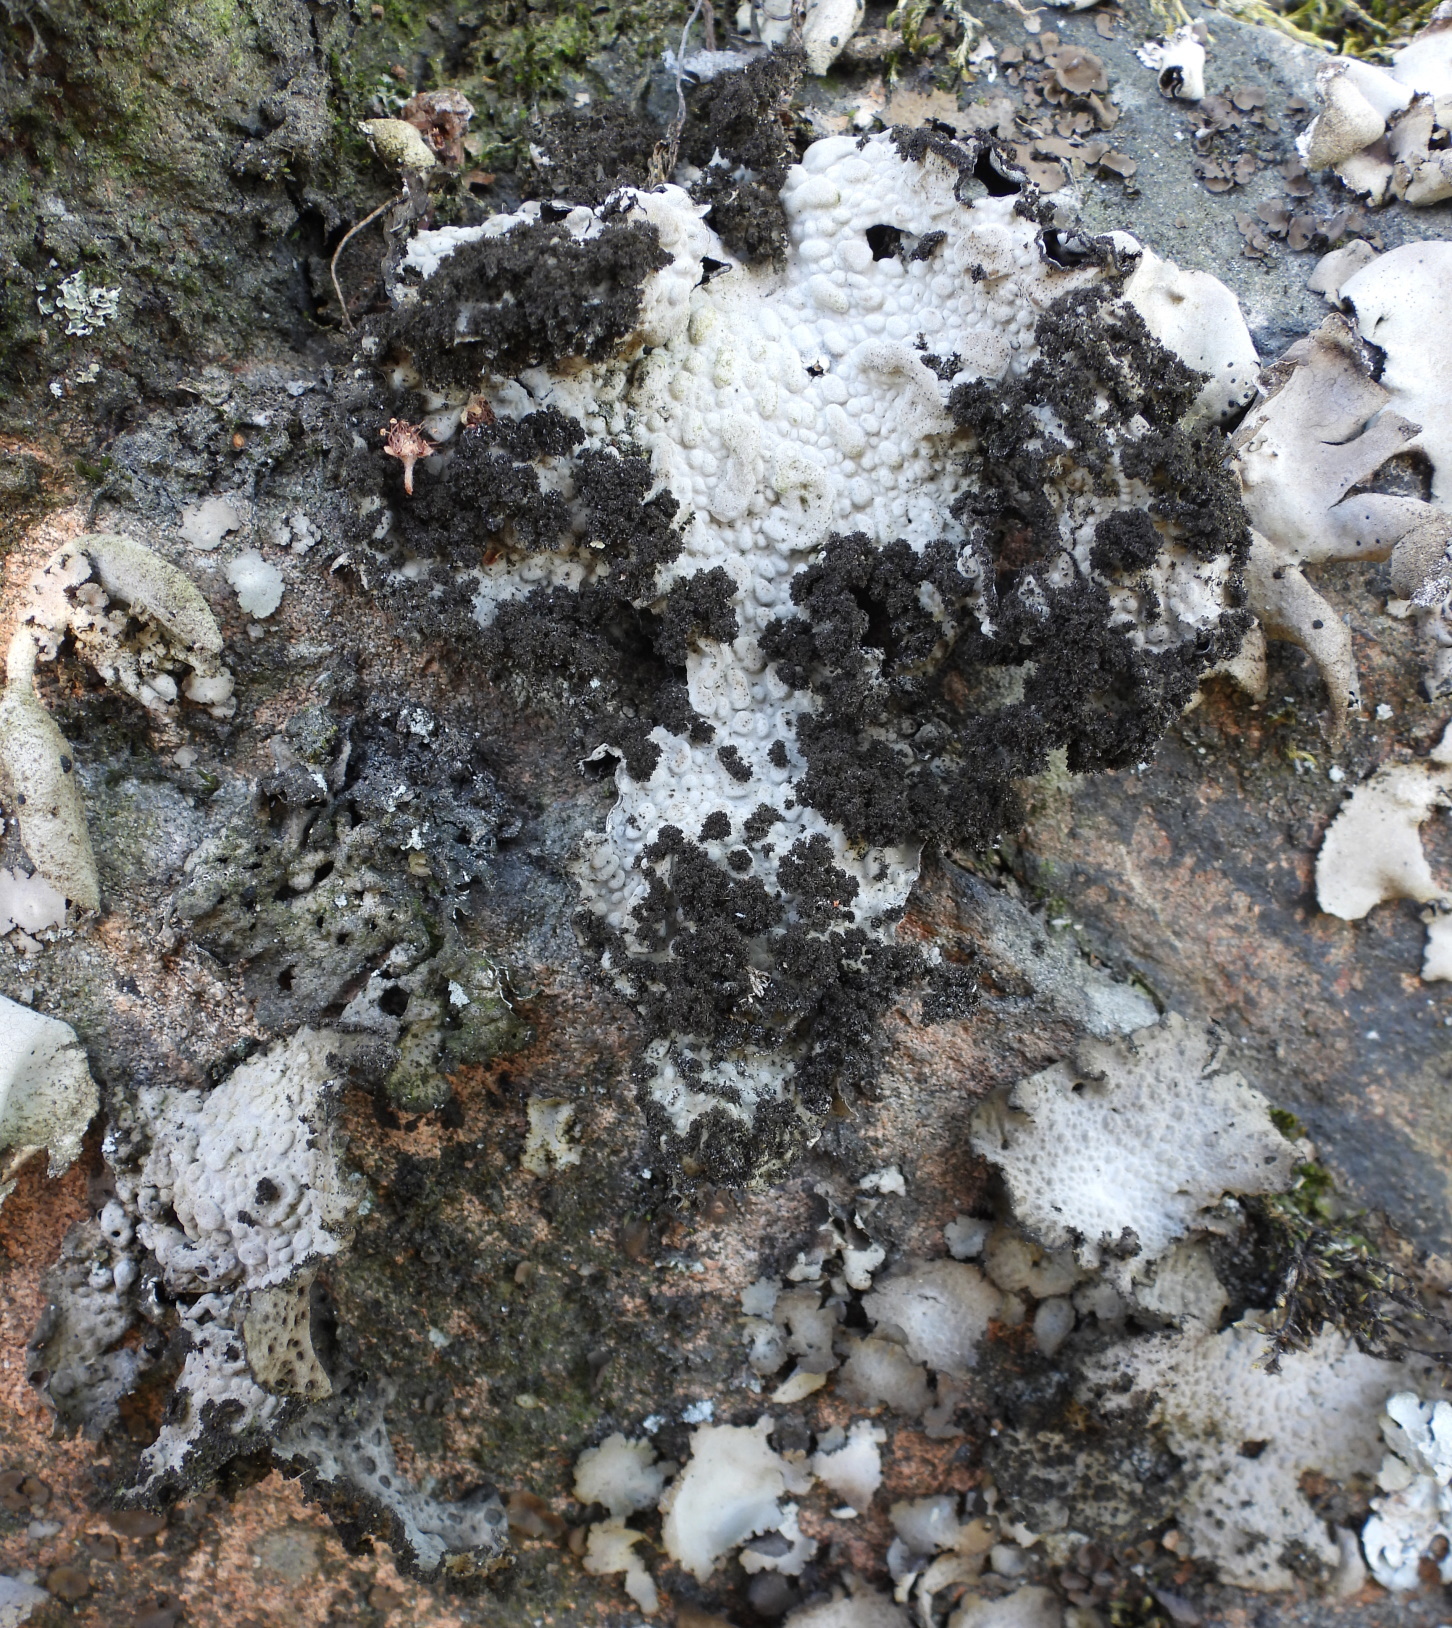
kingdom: Fungi
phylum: Ascomycota
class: Lecanoromycetes
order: Umbilicariales
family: Umbilicariaceae
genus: Lasallia
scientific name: Lasallia pustulata
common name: Blistered toadskin lichen
